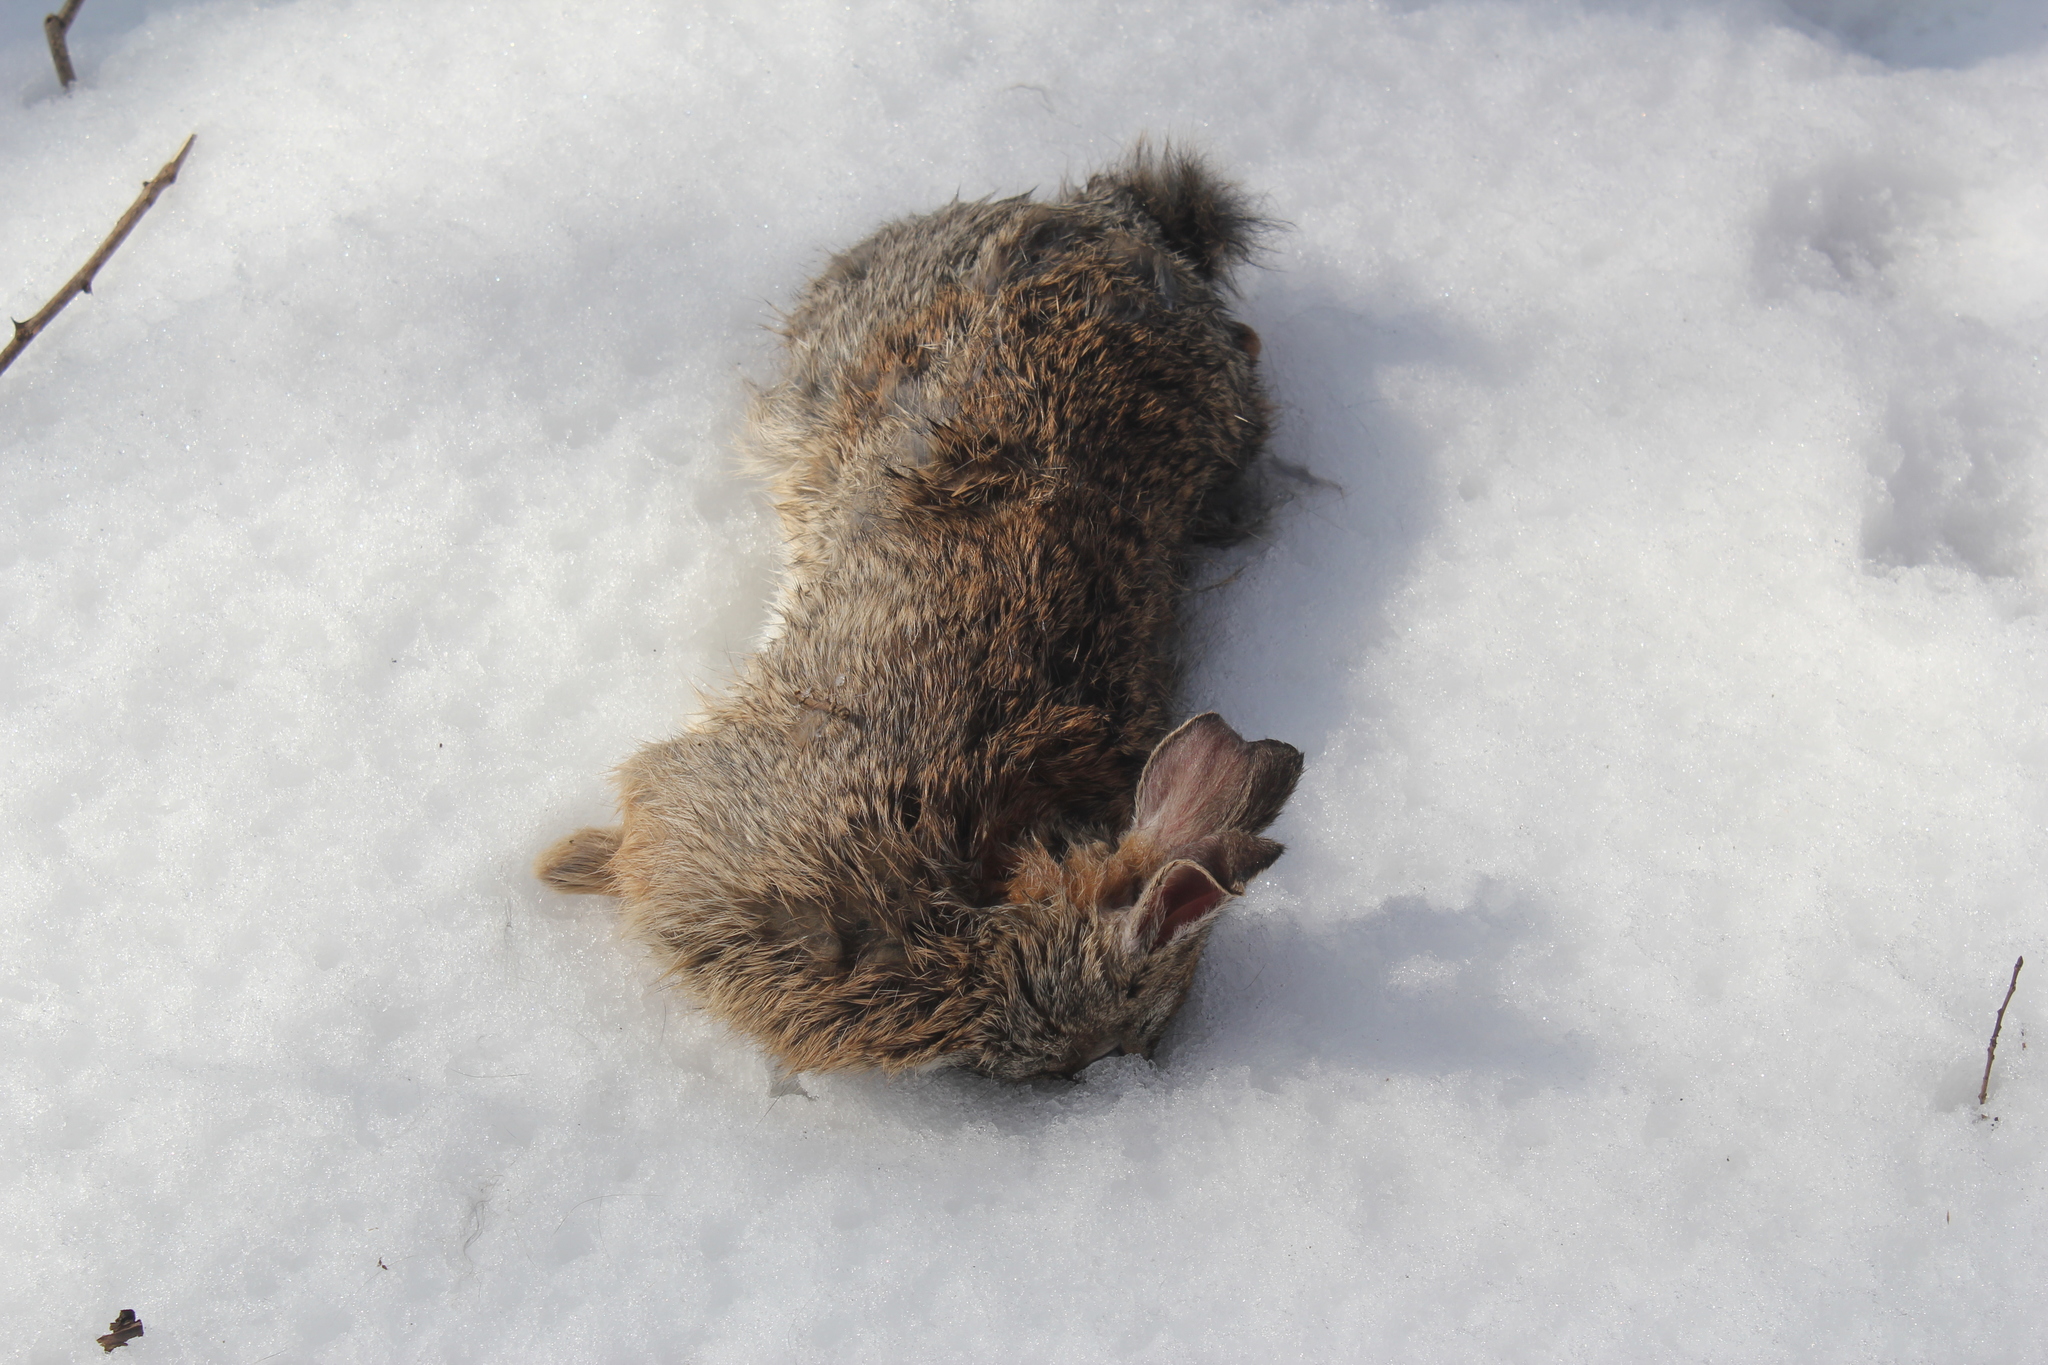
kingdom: Animalia
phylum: Chordata
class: Mammalia
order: Lagomorpha
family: Leporidae
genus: Sylvilagus
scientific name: Sylvilagus floridanus
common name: Eastern cottontail
